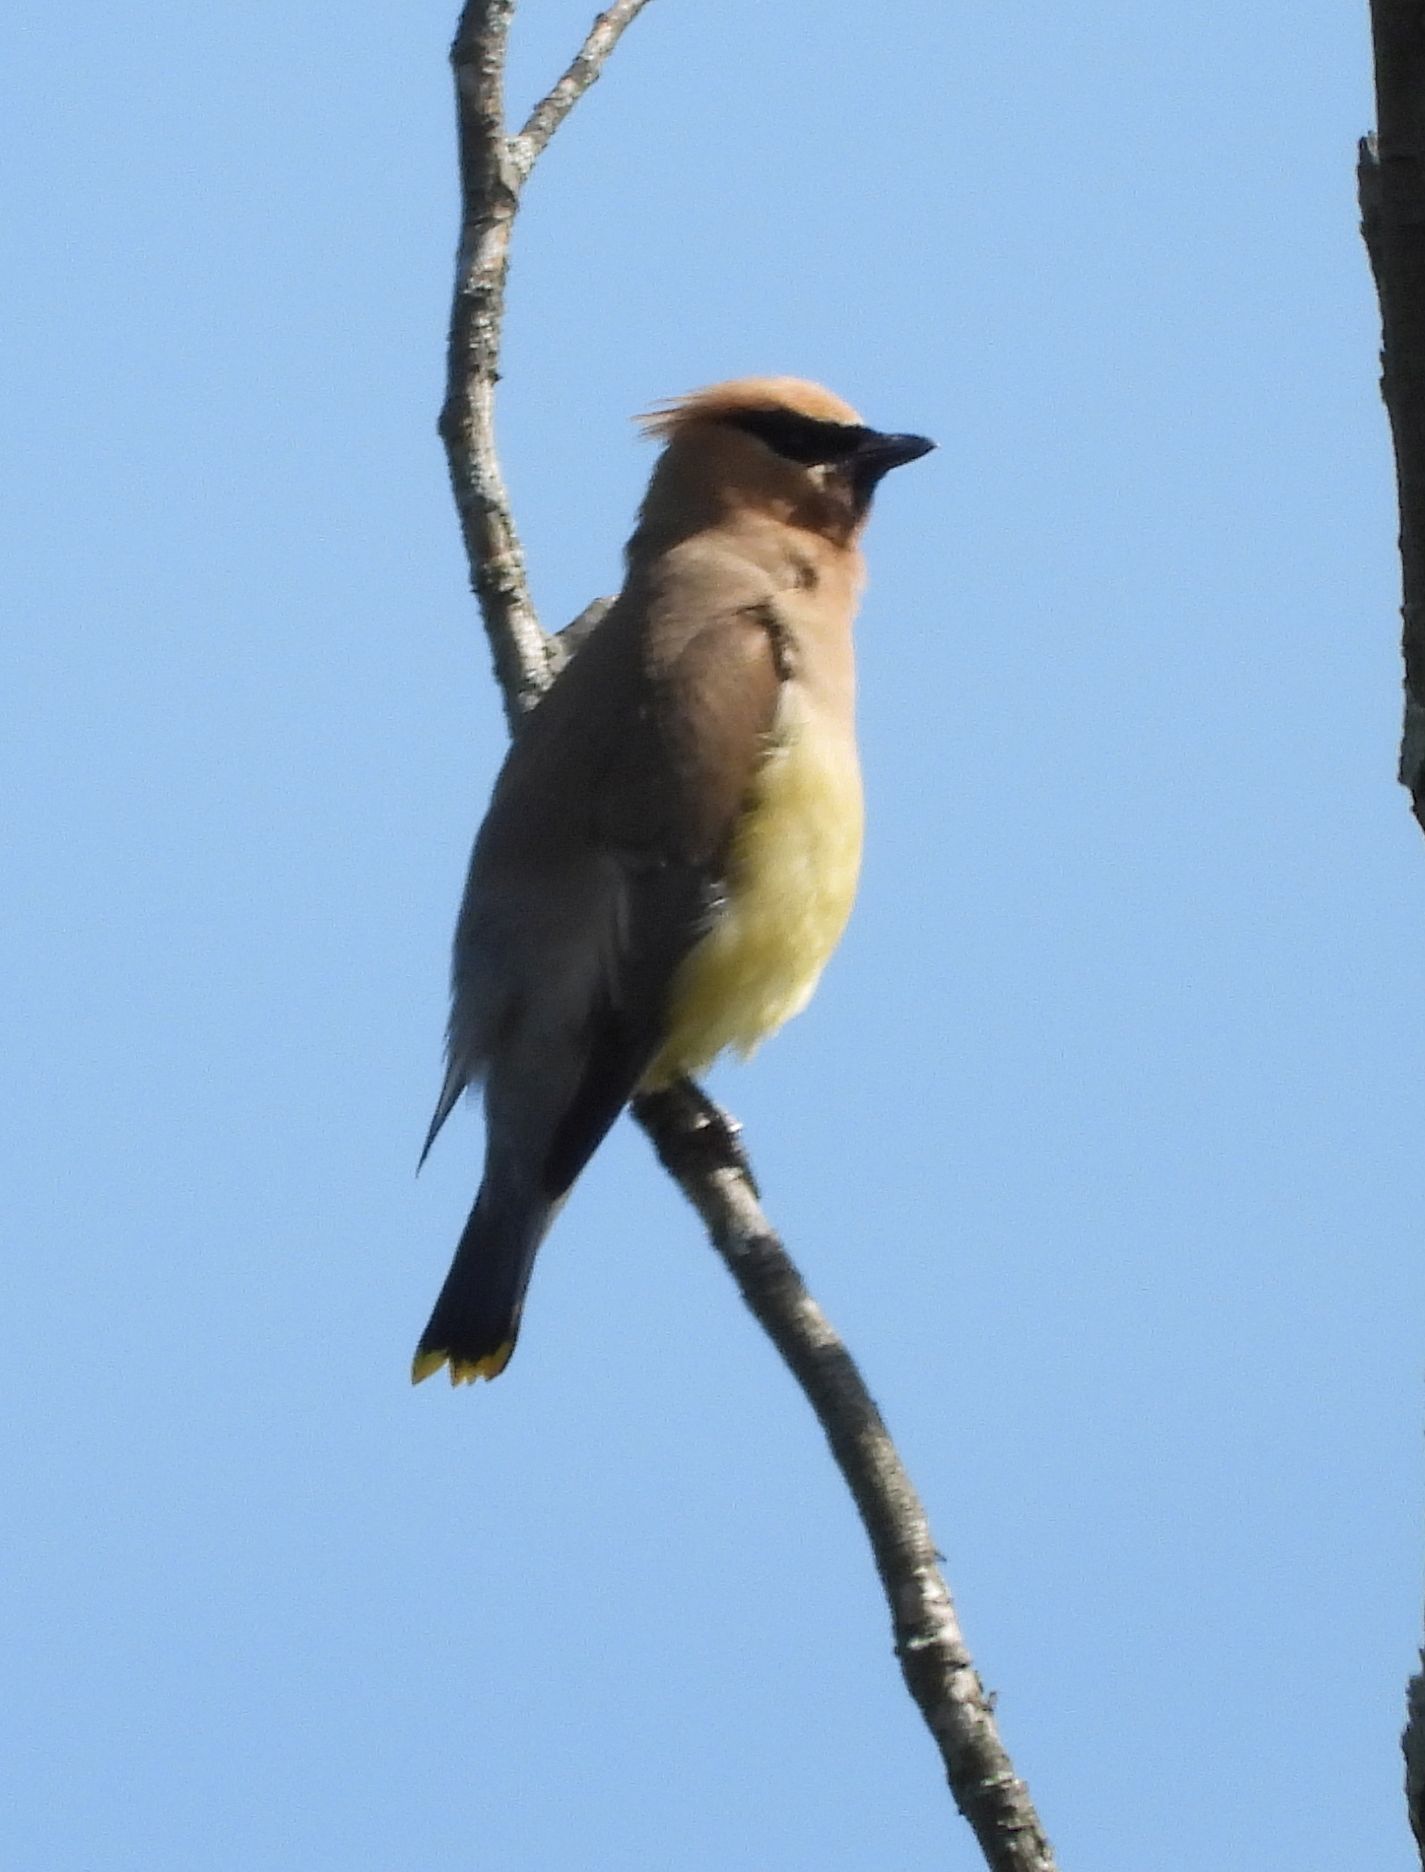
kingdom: Animalia
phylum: Chordata
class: Aves
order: Passeriformes
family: Bombycillidae
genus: Bombycilla
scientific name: Bombycilla cedrorum
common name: Cedar waxwing
